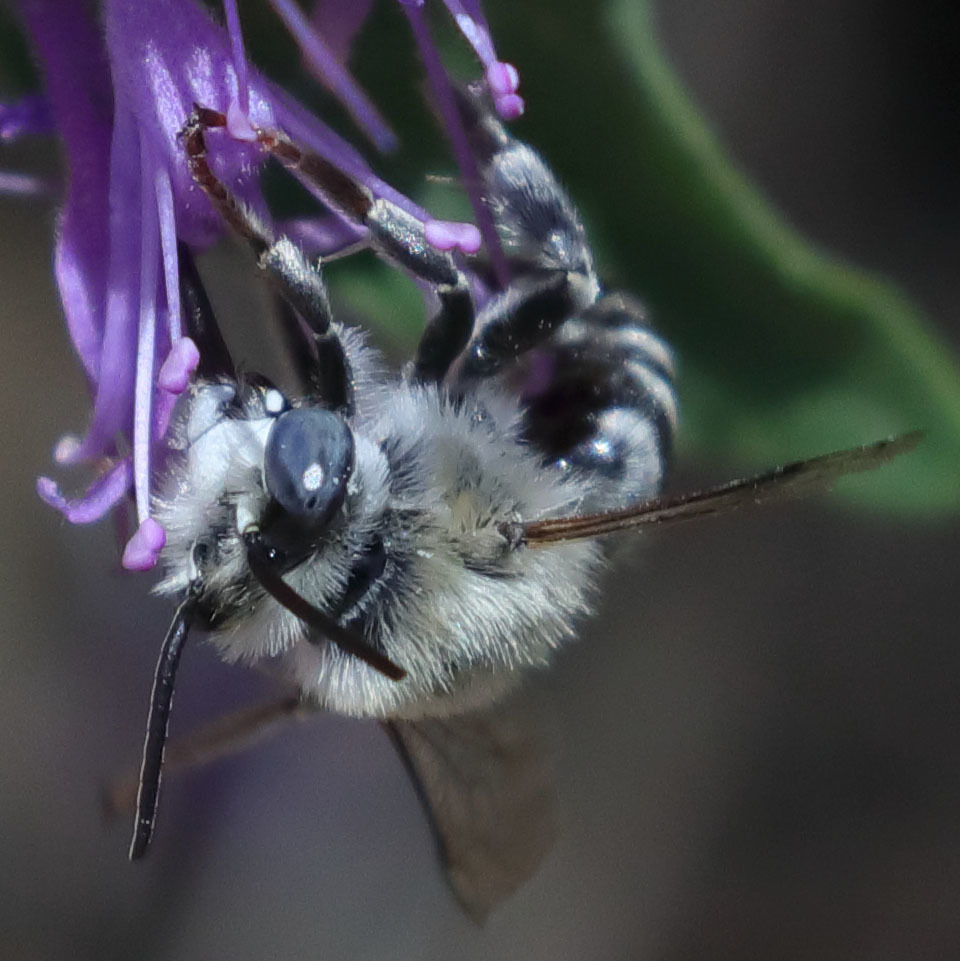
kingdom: Animalia
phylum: Arthropoda
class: Insecta
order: Hymenoptera
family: Apidae
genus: Anthophora
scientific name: Anthophora urbana
